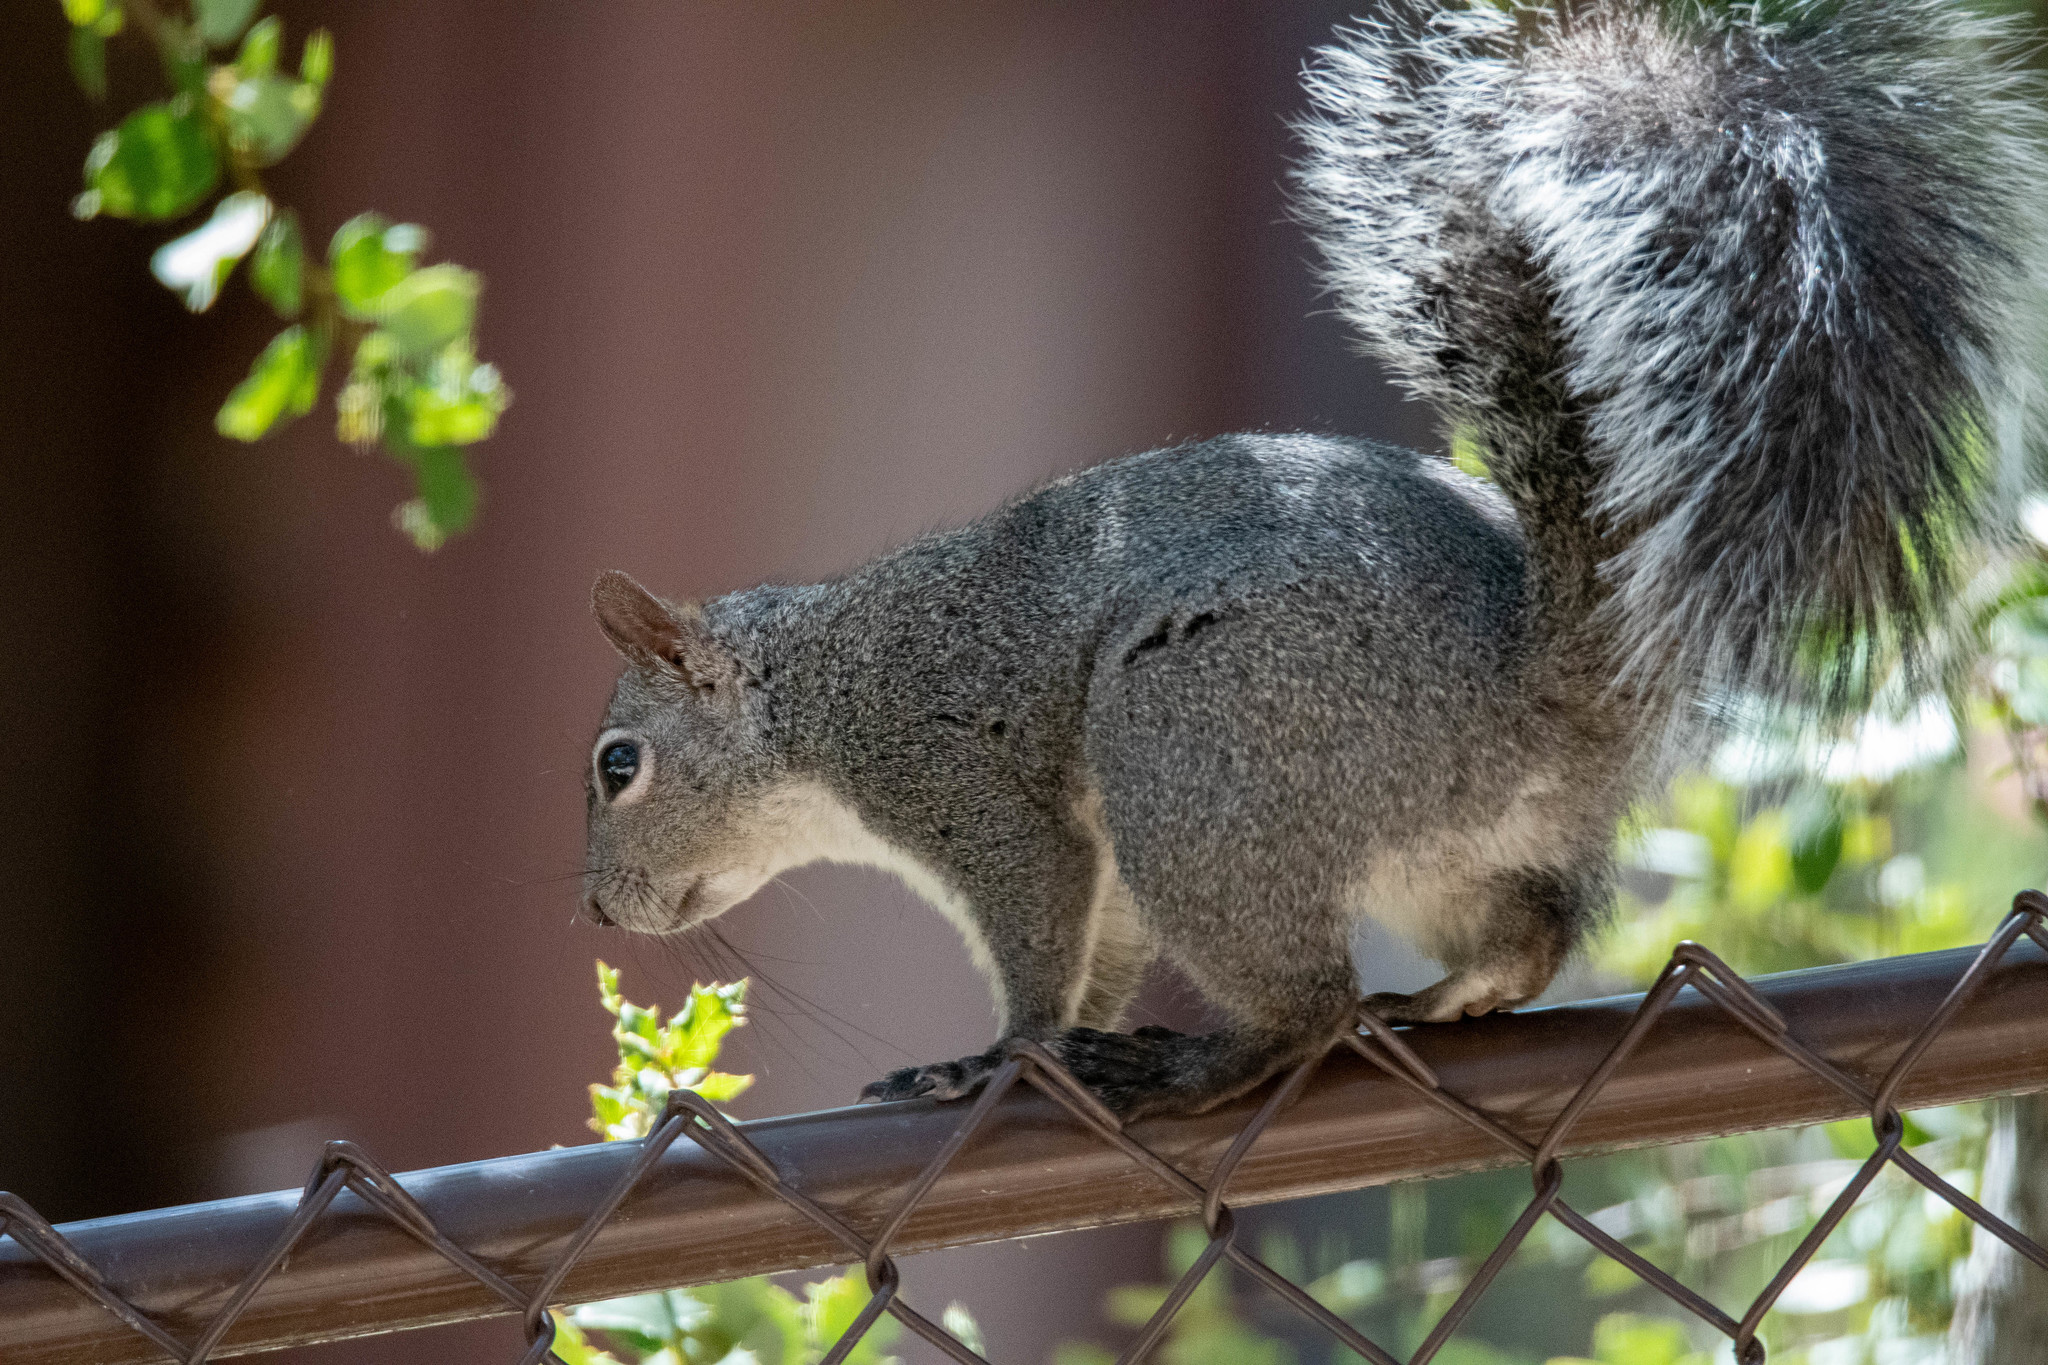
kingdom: Animalia
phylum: Chordata
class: Mammalia
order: Rodentia
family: Sciuridae
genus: Sciurus
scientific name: Sciurus griseus
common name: Western gray squirrel
